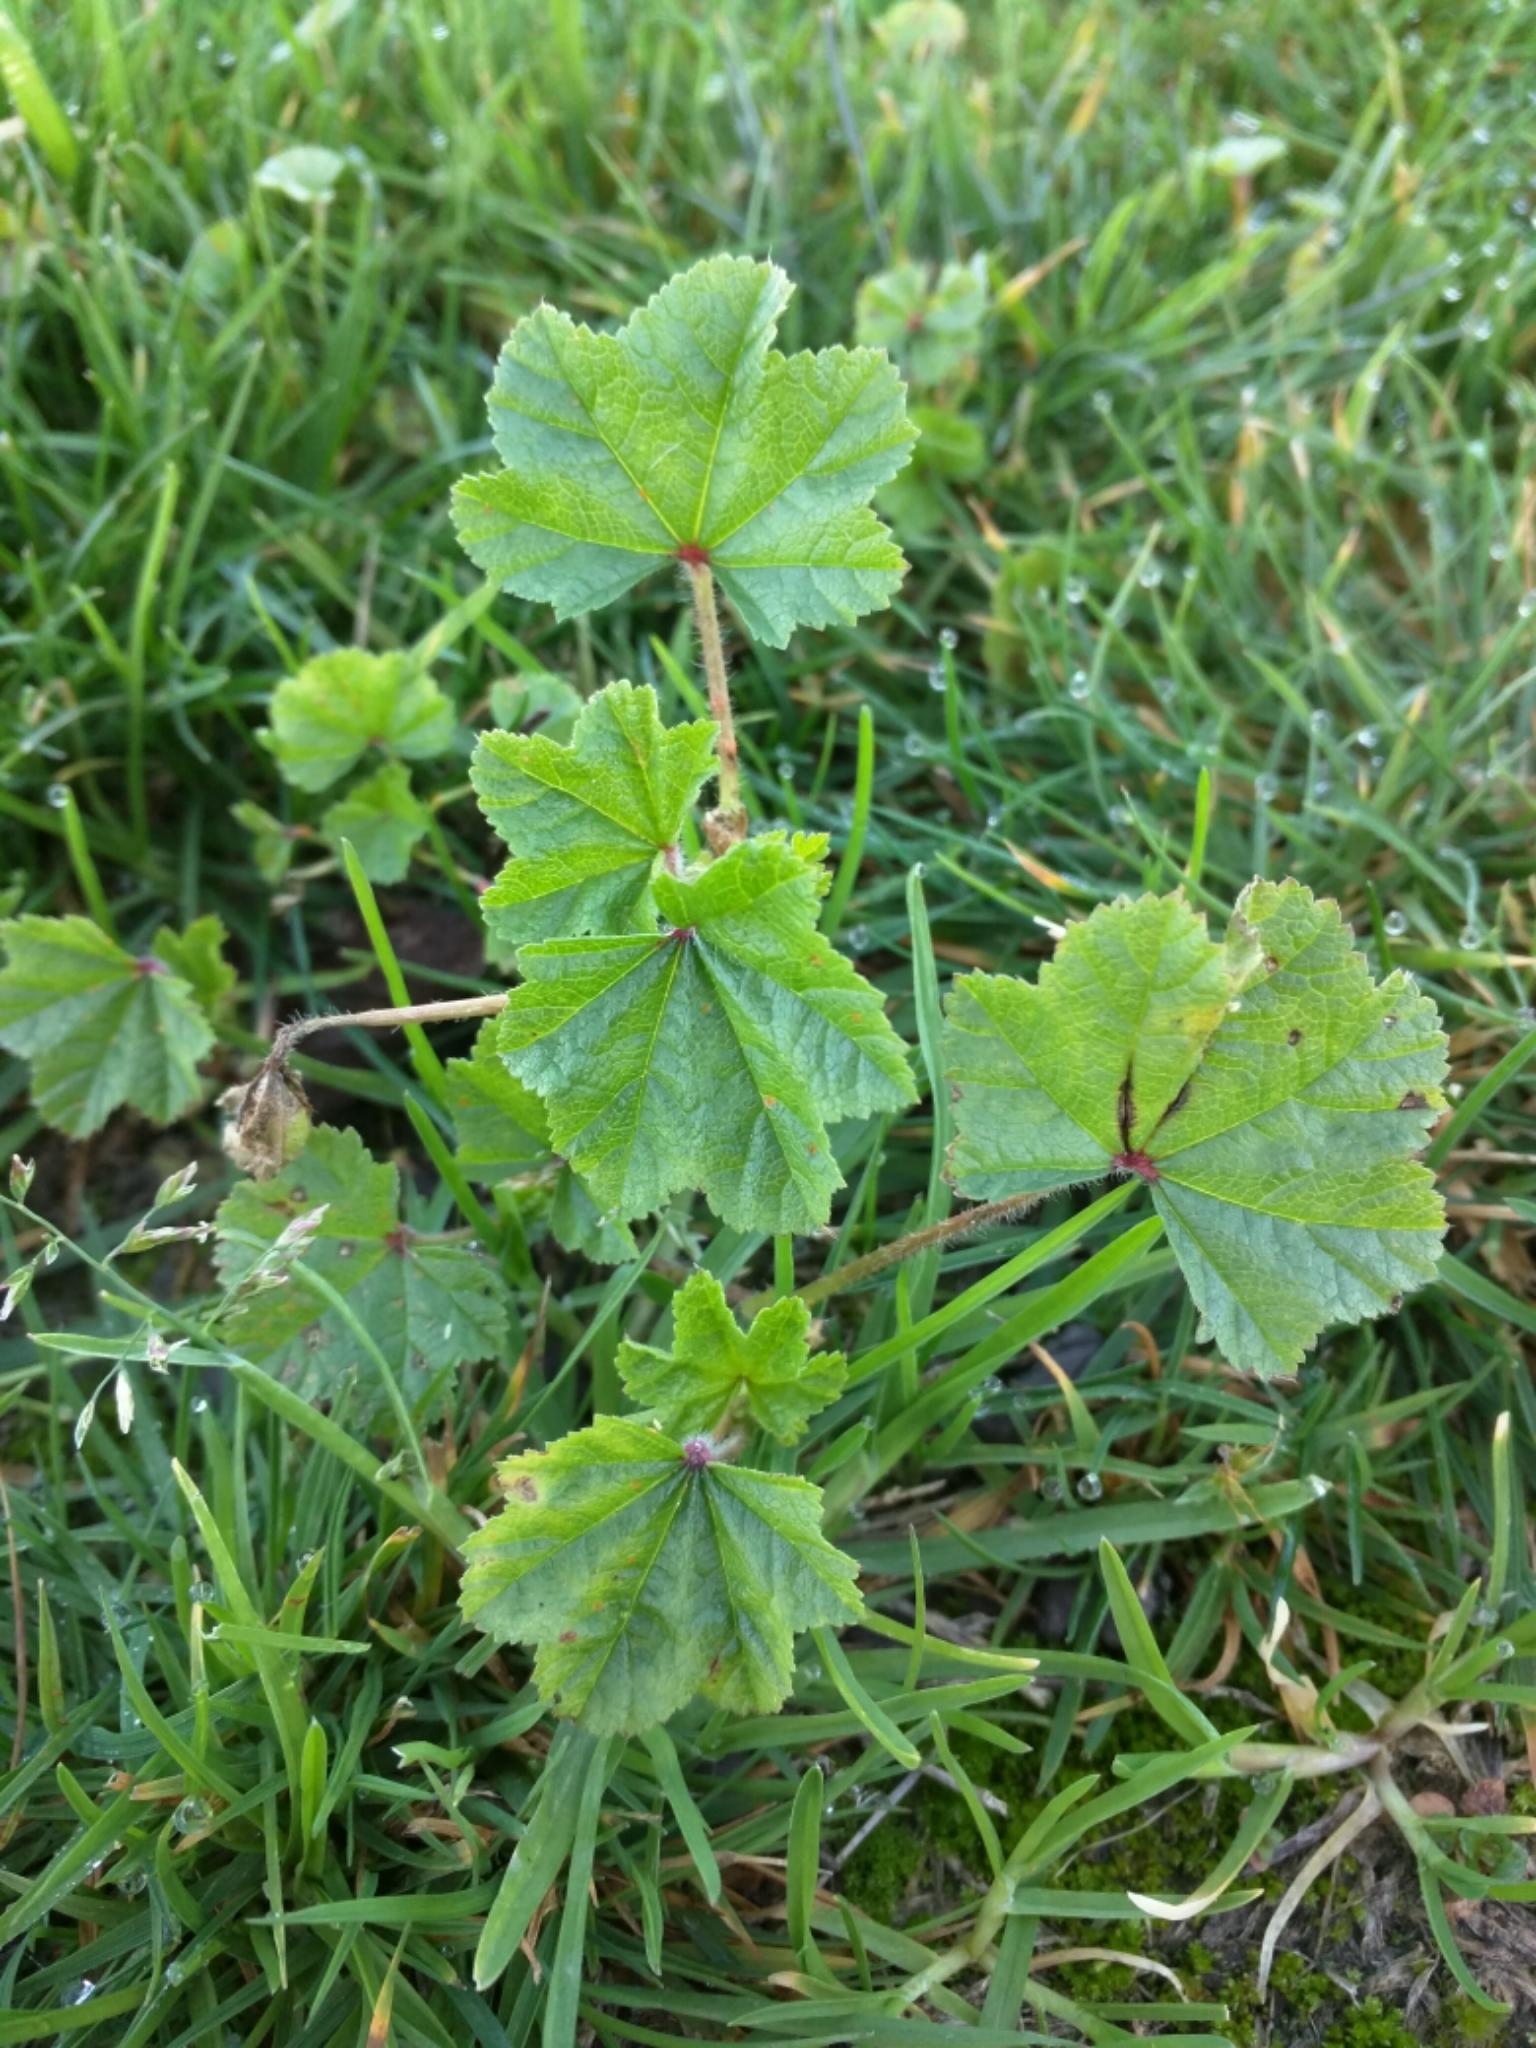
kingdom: Plantae
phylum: Tracheophyta
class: Magnoliopsida
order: Malvales
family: Malvaceae
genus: Malva
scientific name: Malva sylvestris
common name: Common mallow
